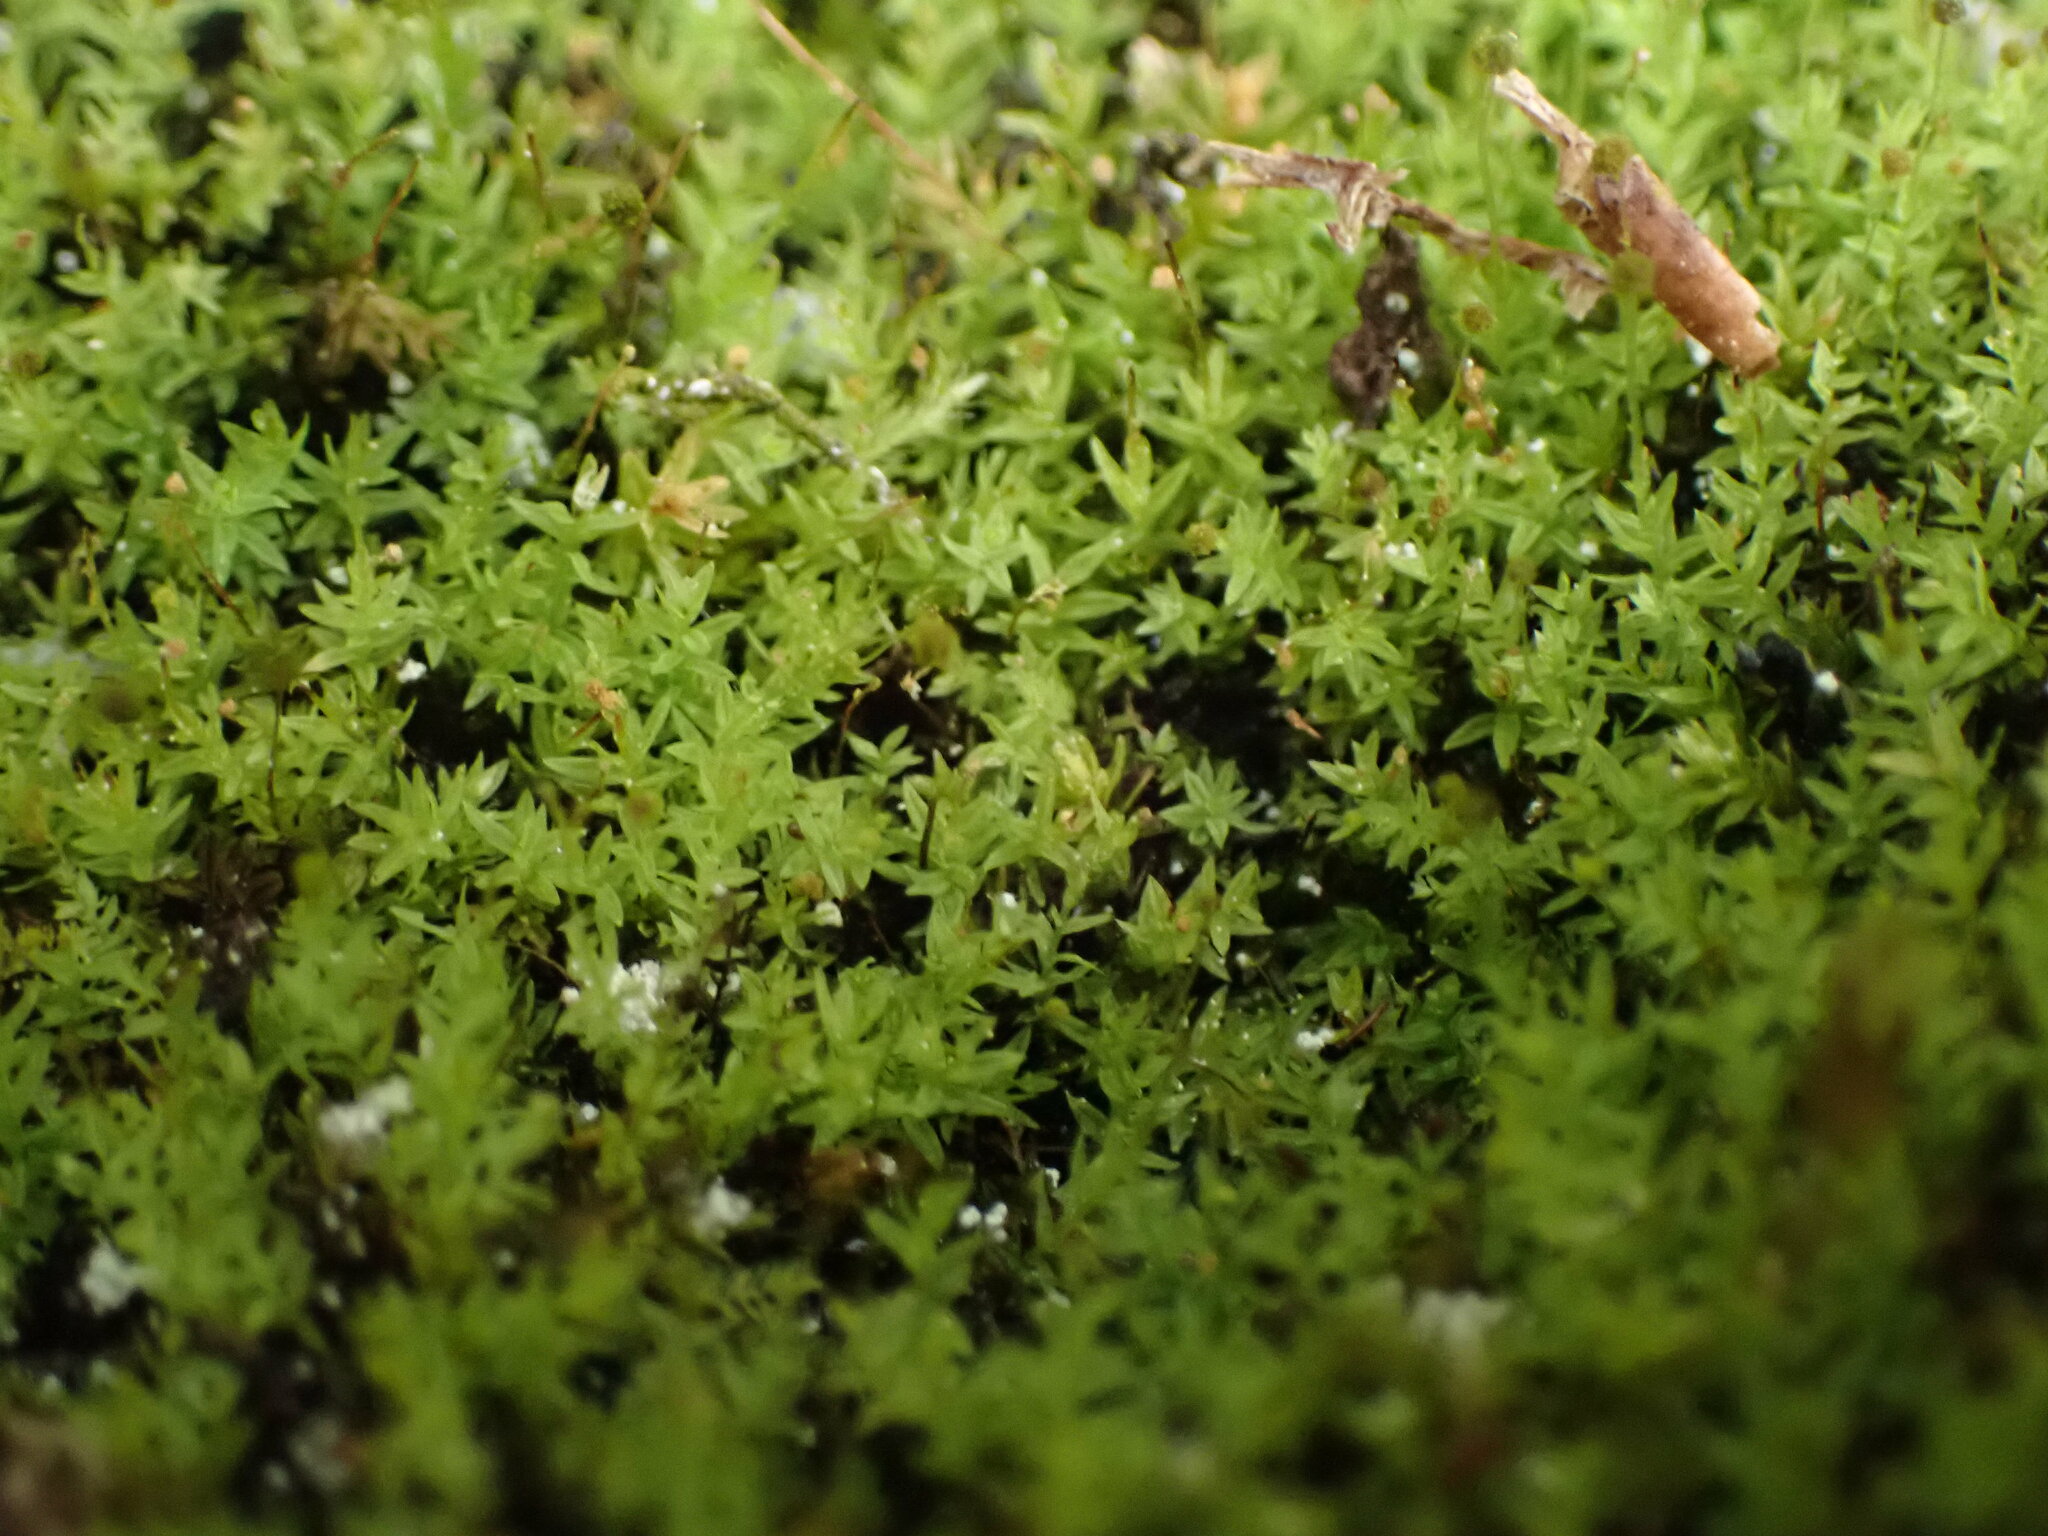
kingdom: Plantae
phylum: Bryophyta
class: Bryopsida
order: Aulacomniales
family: Aulacomniaceae
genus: Aulacomnium
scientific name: Aulacomnium androgynum
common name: Little groove moss
